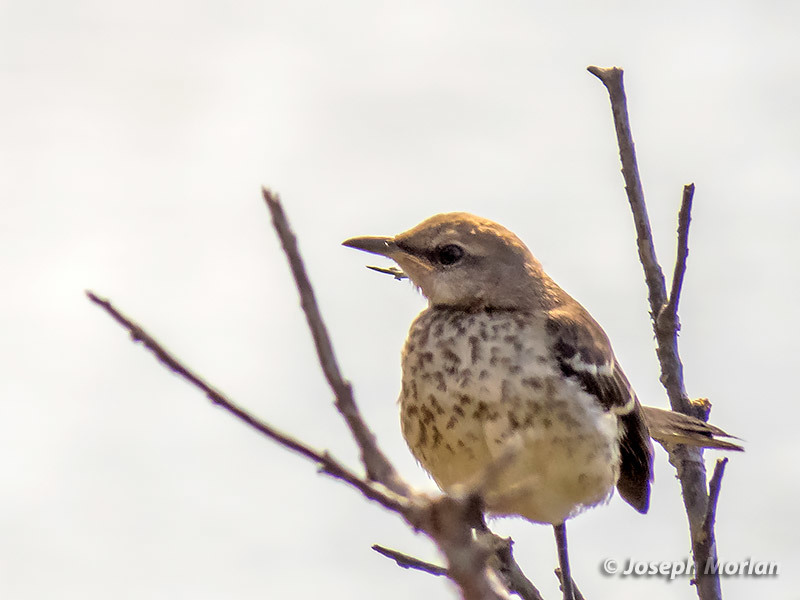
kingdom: Animalia
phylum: Chordata
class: Aves
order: Passeriformes
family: Mimidae
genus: Mimus
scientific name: Mimus polyglottos
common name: Northern mockingbird
